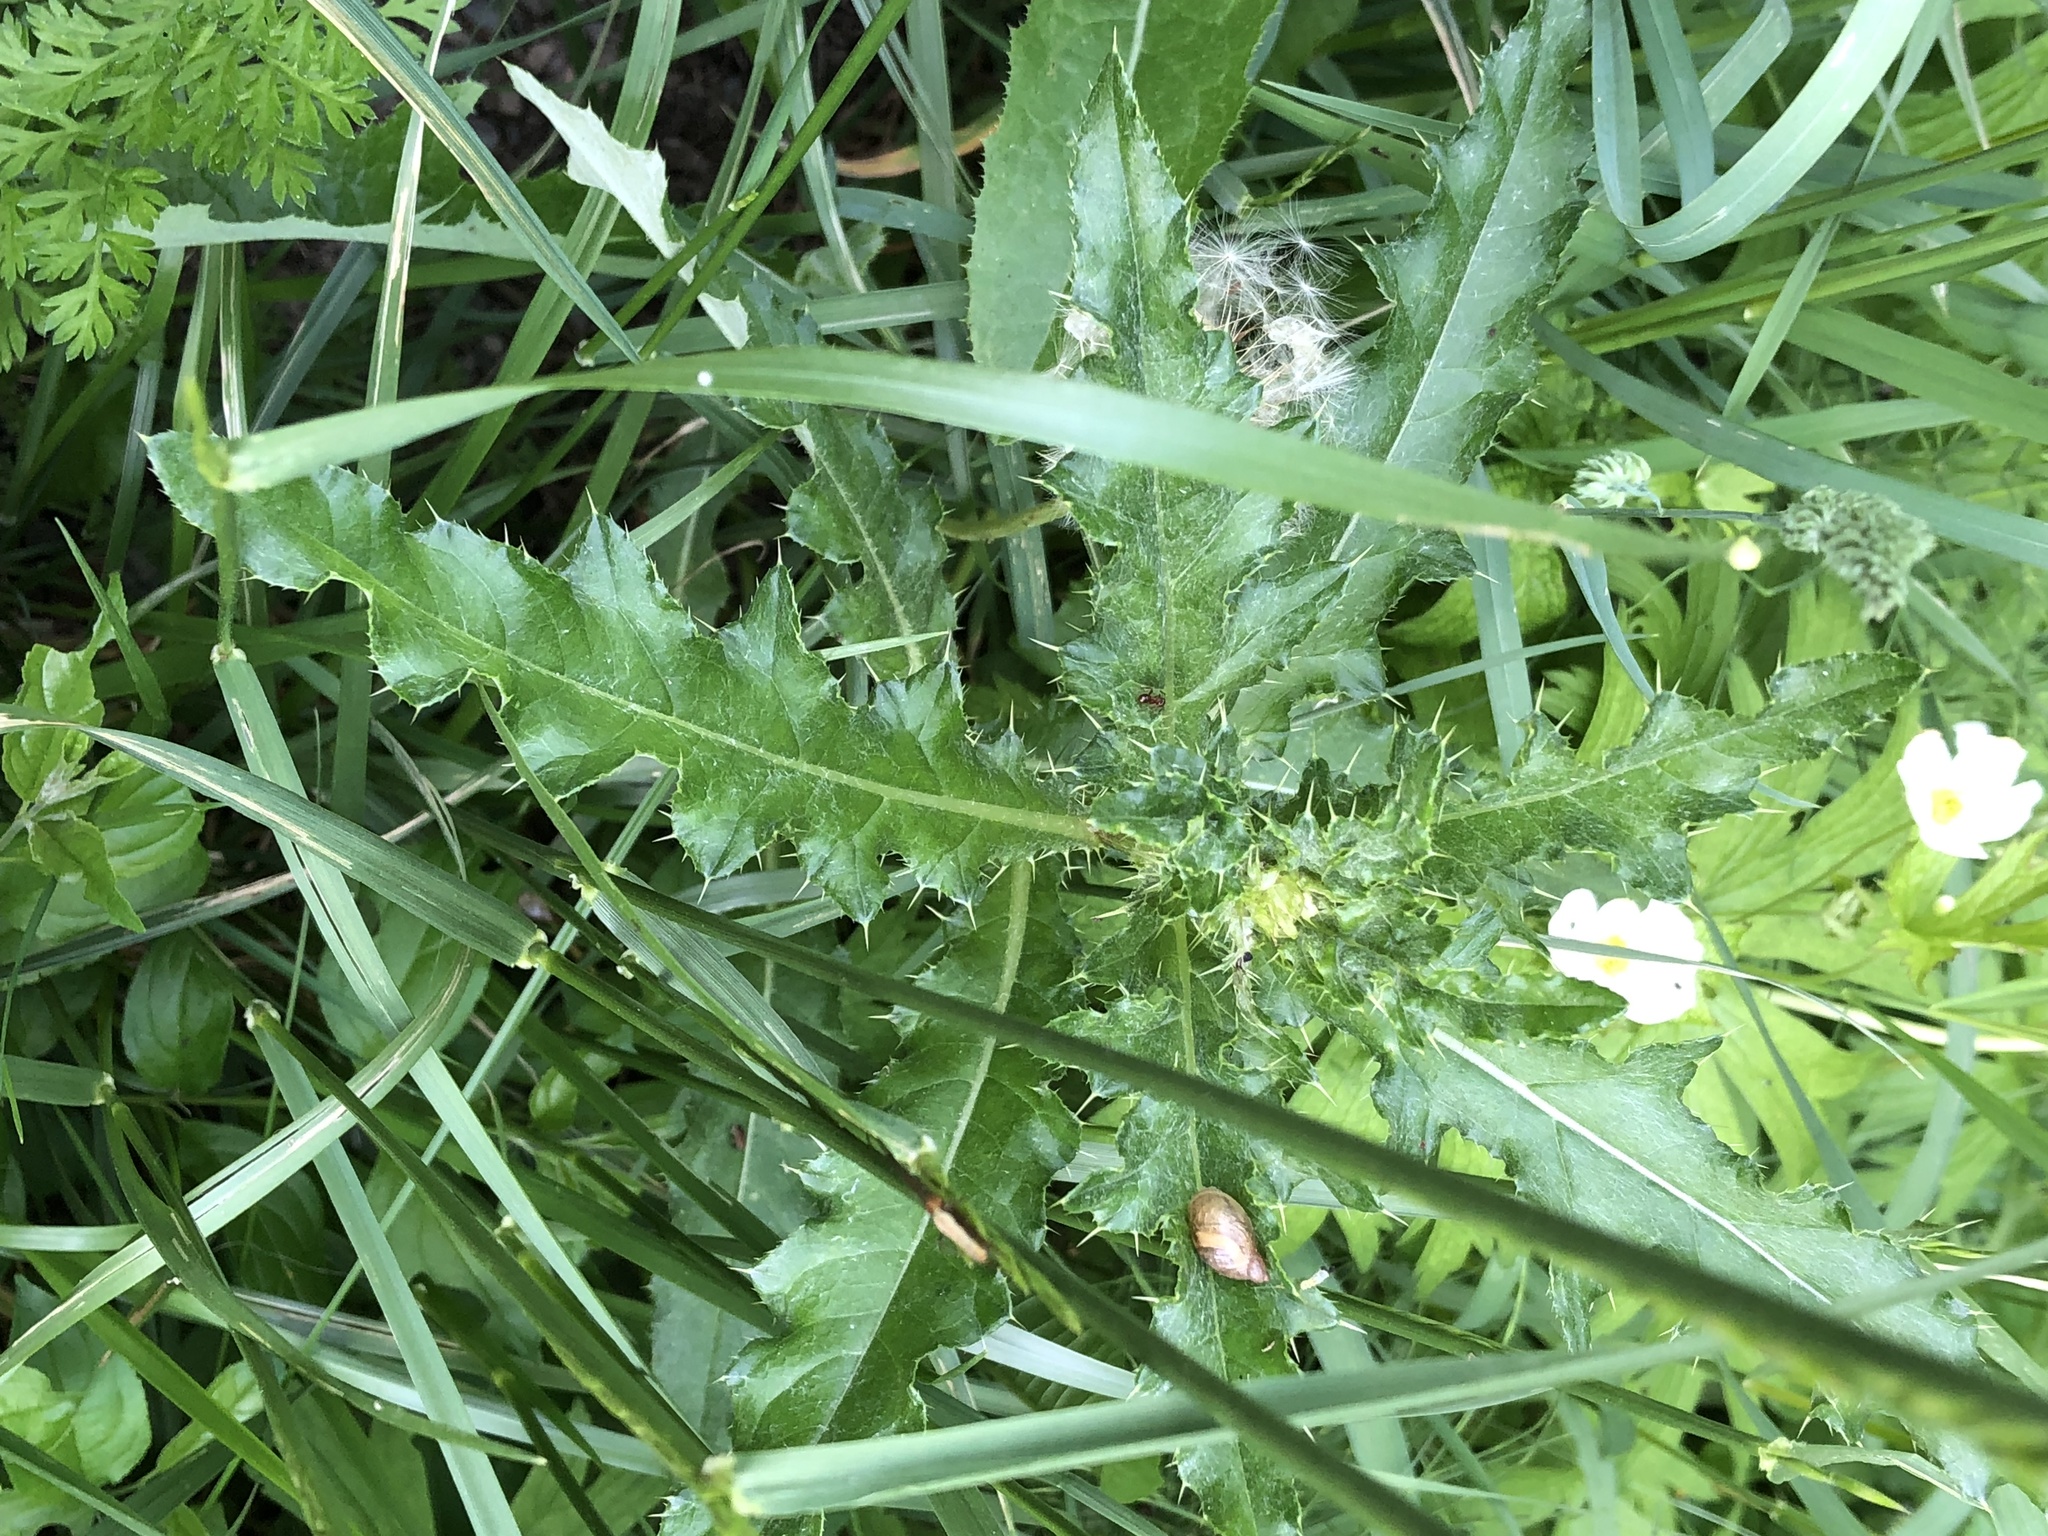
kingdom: Plantae
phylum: Tracheophyta
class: Magnoliopsida
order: Asterales
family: Asteraceae
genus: Cirsium
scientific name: Cirsium arvense
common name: Creeping thistle
